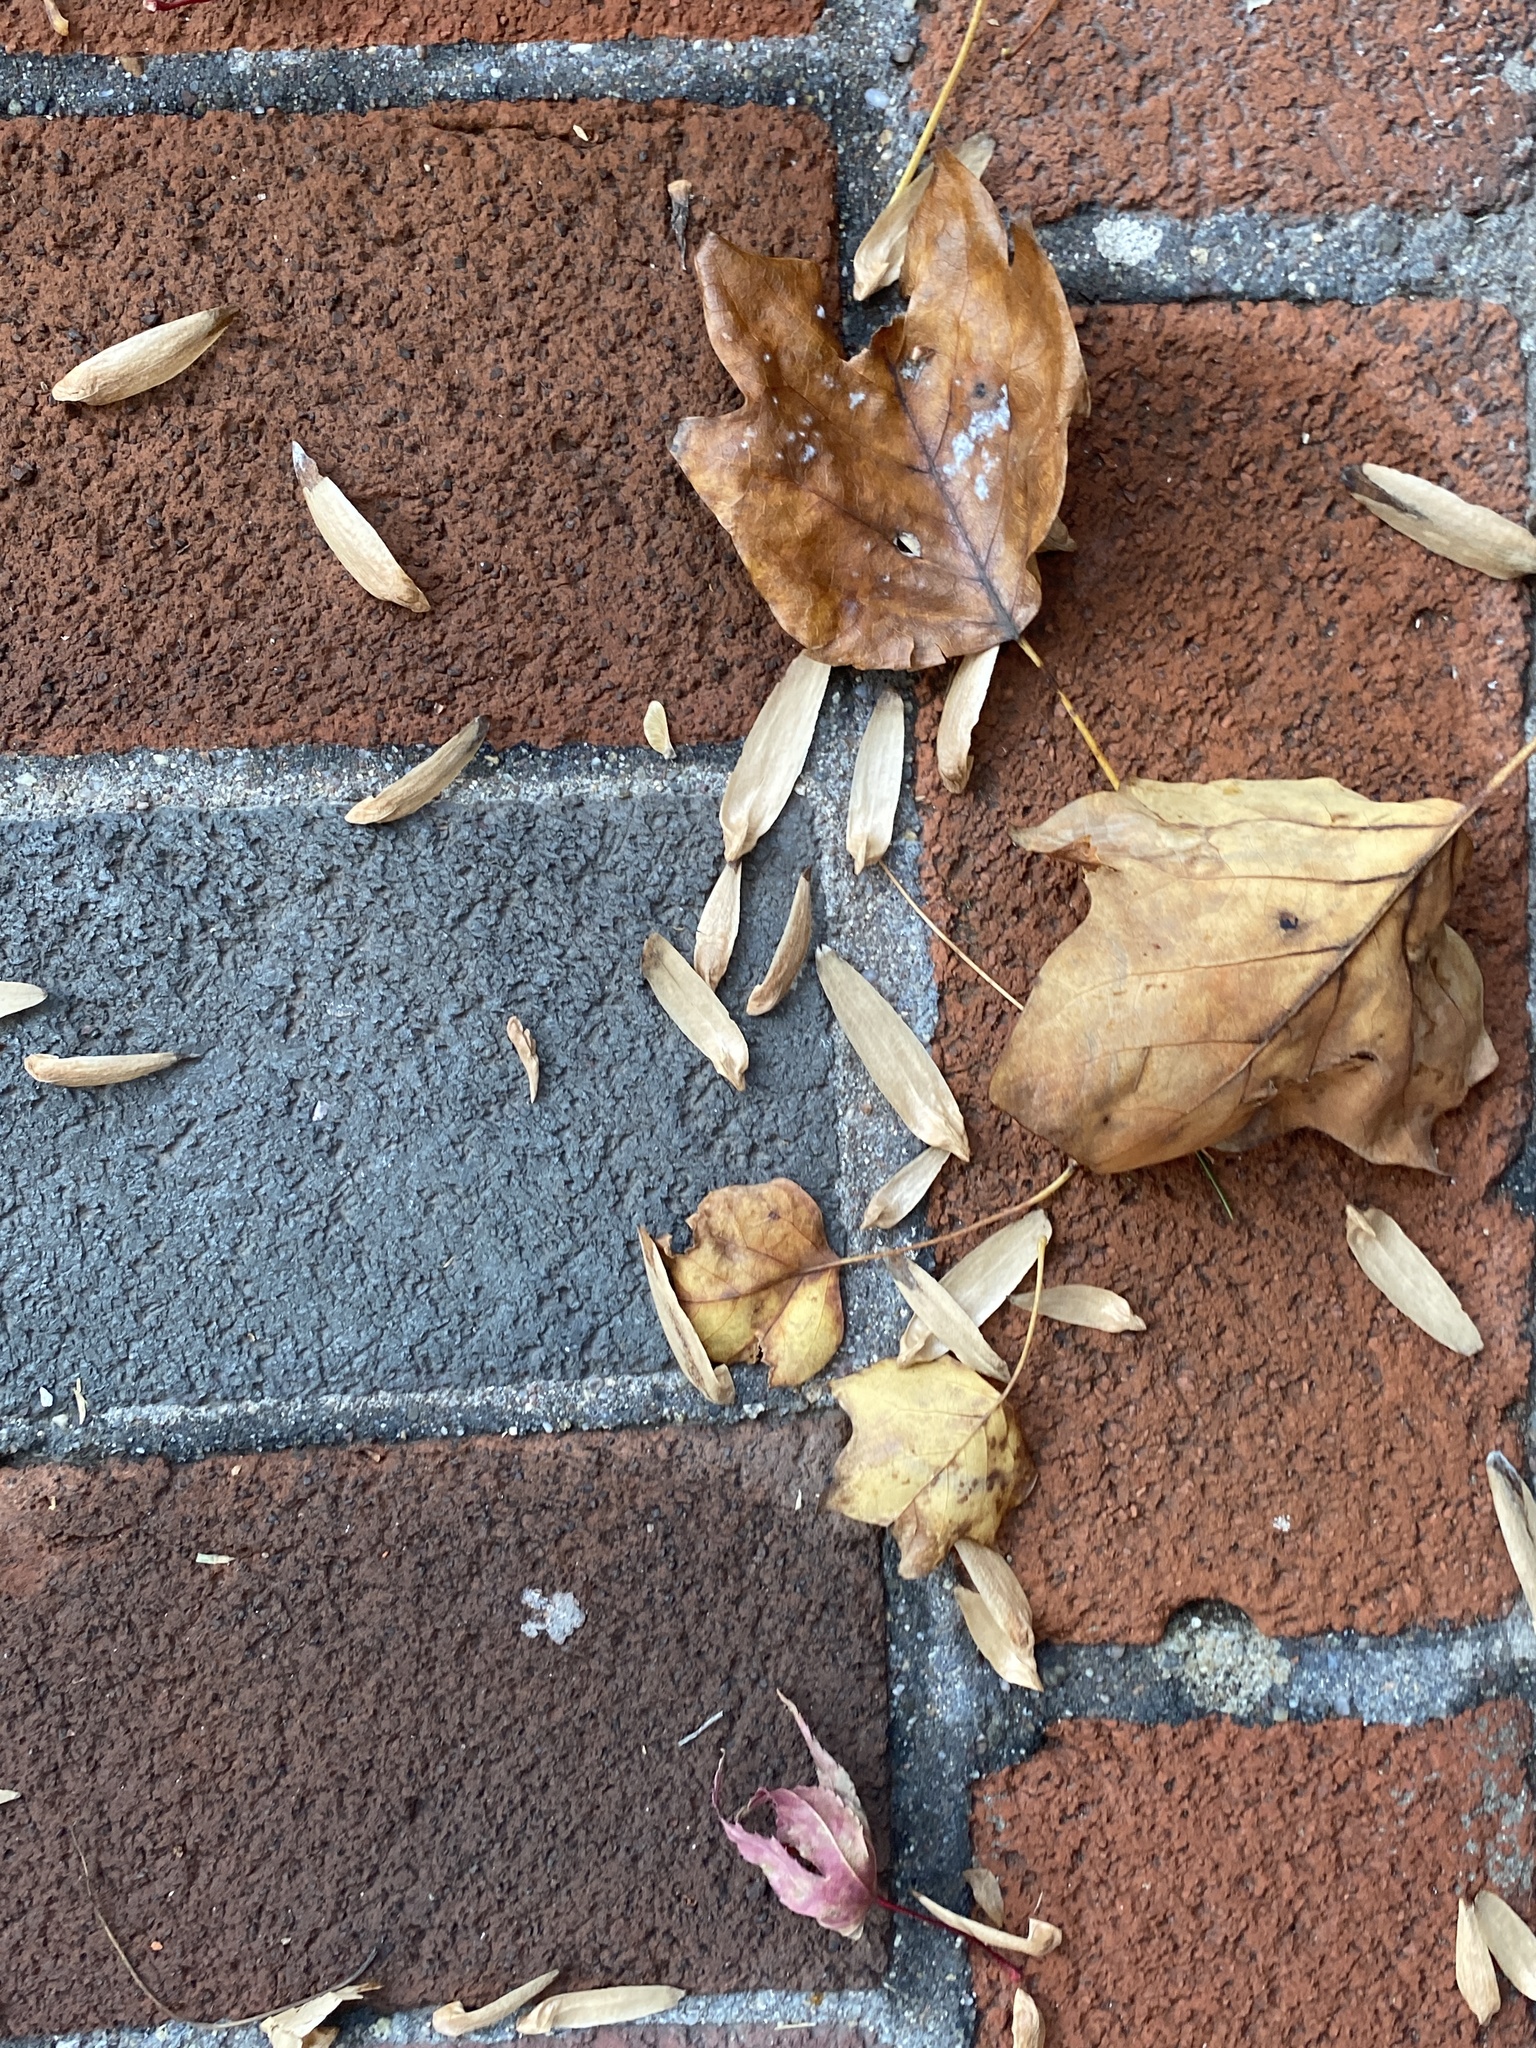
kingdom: Plantae
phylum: Tracheophyta
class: Magnoliopsida
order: Magnoliales
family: Magnoliaceae
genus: Liriodendron
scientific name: Liriodendron tulipifera
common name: Tulip tree
